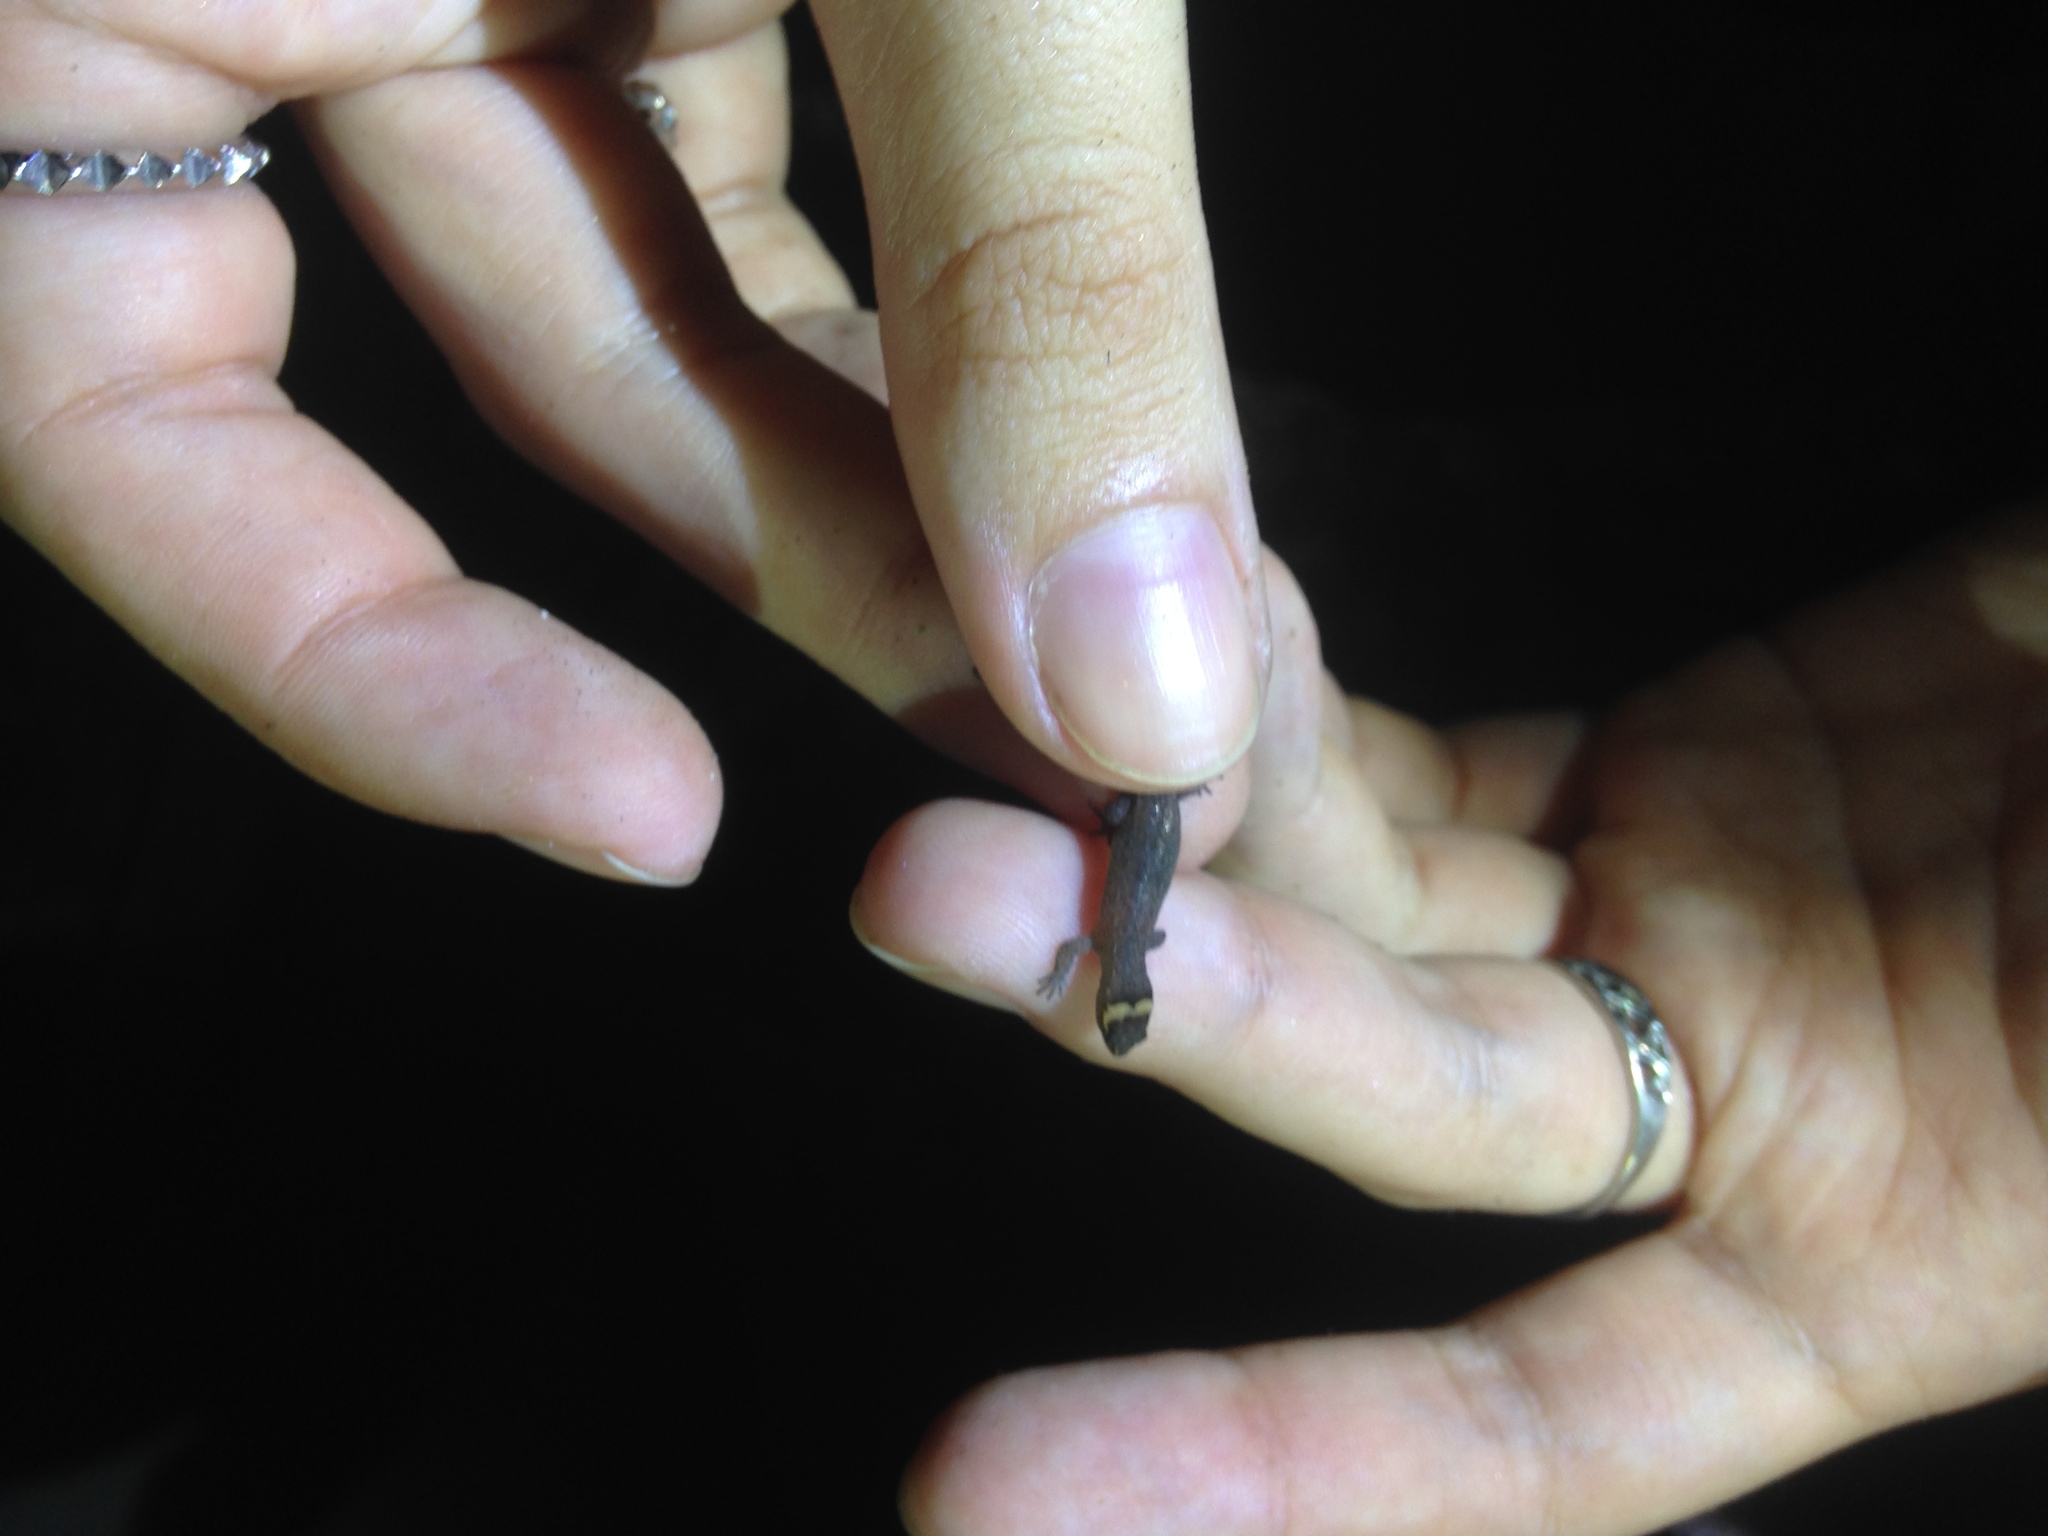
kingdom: Animalia
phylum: Chordata
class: Squamata
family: Sphaerodactylidae
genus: Lepidoblepharis
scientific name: Lepidoblepharis sanctaemartae
